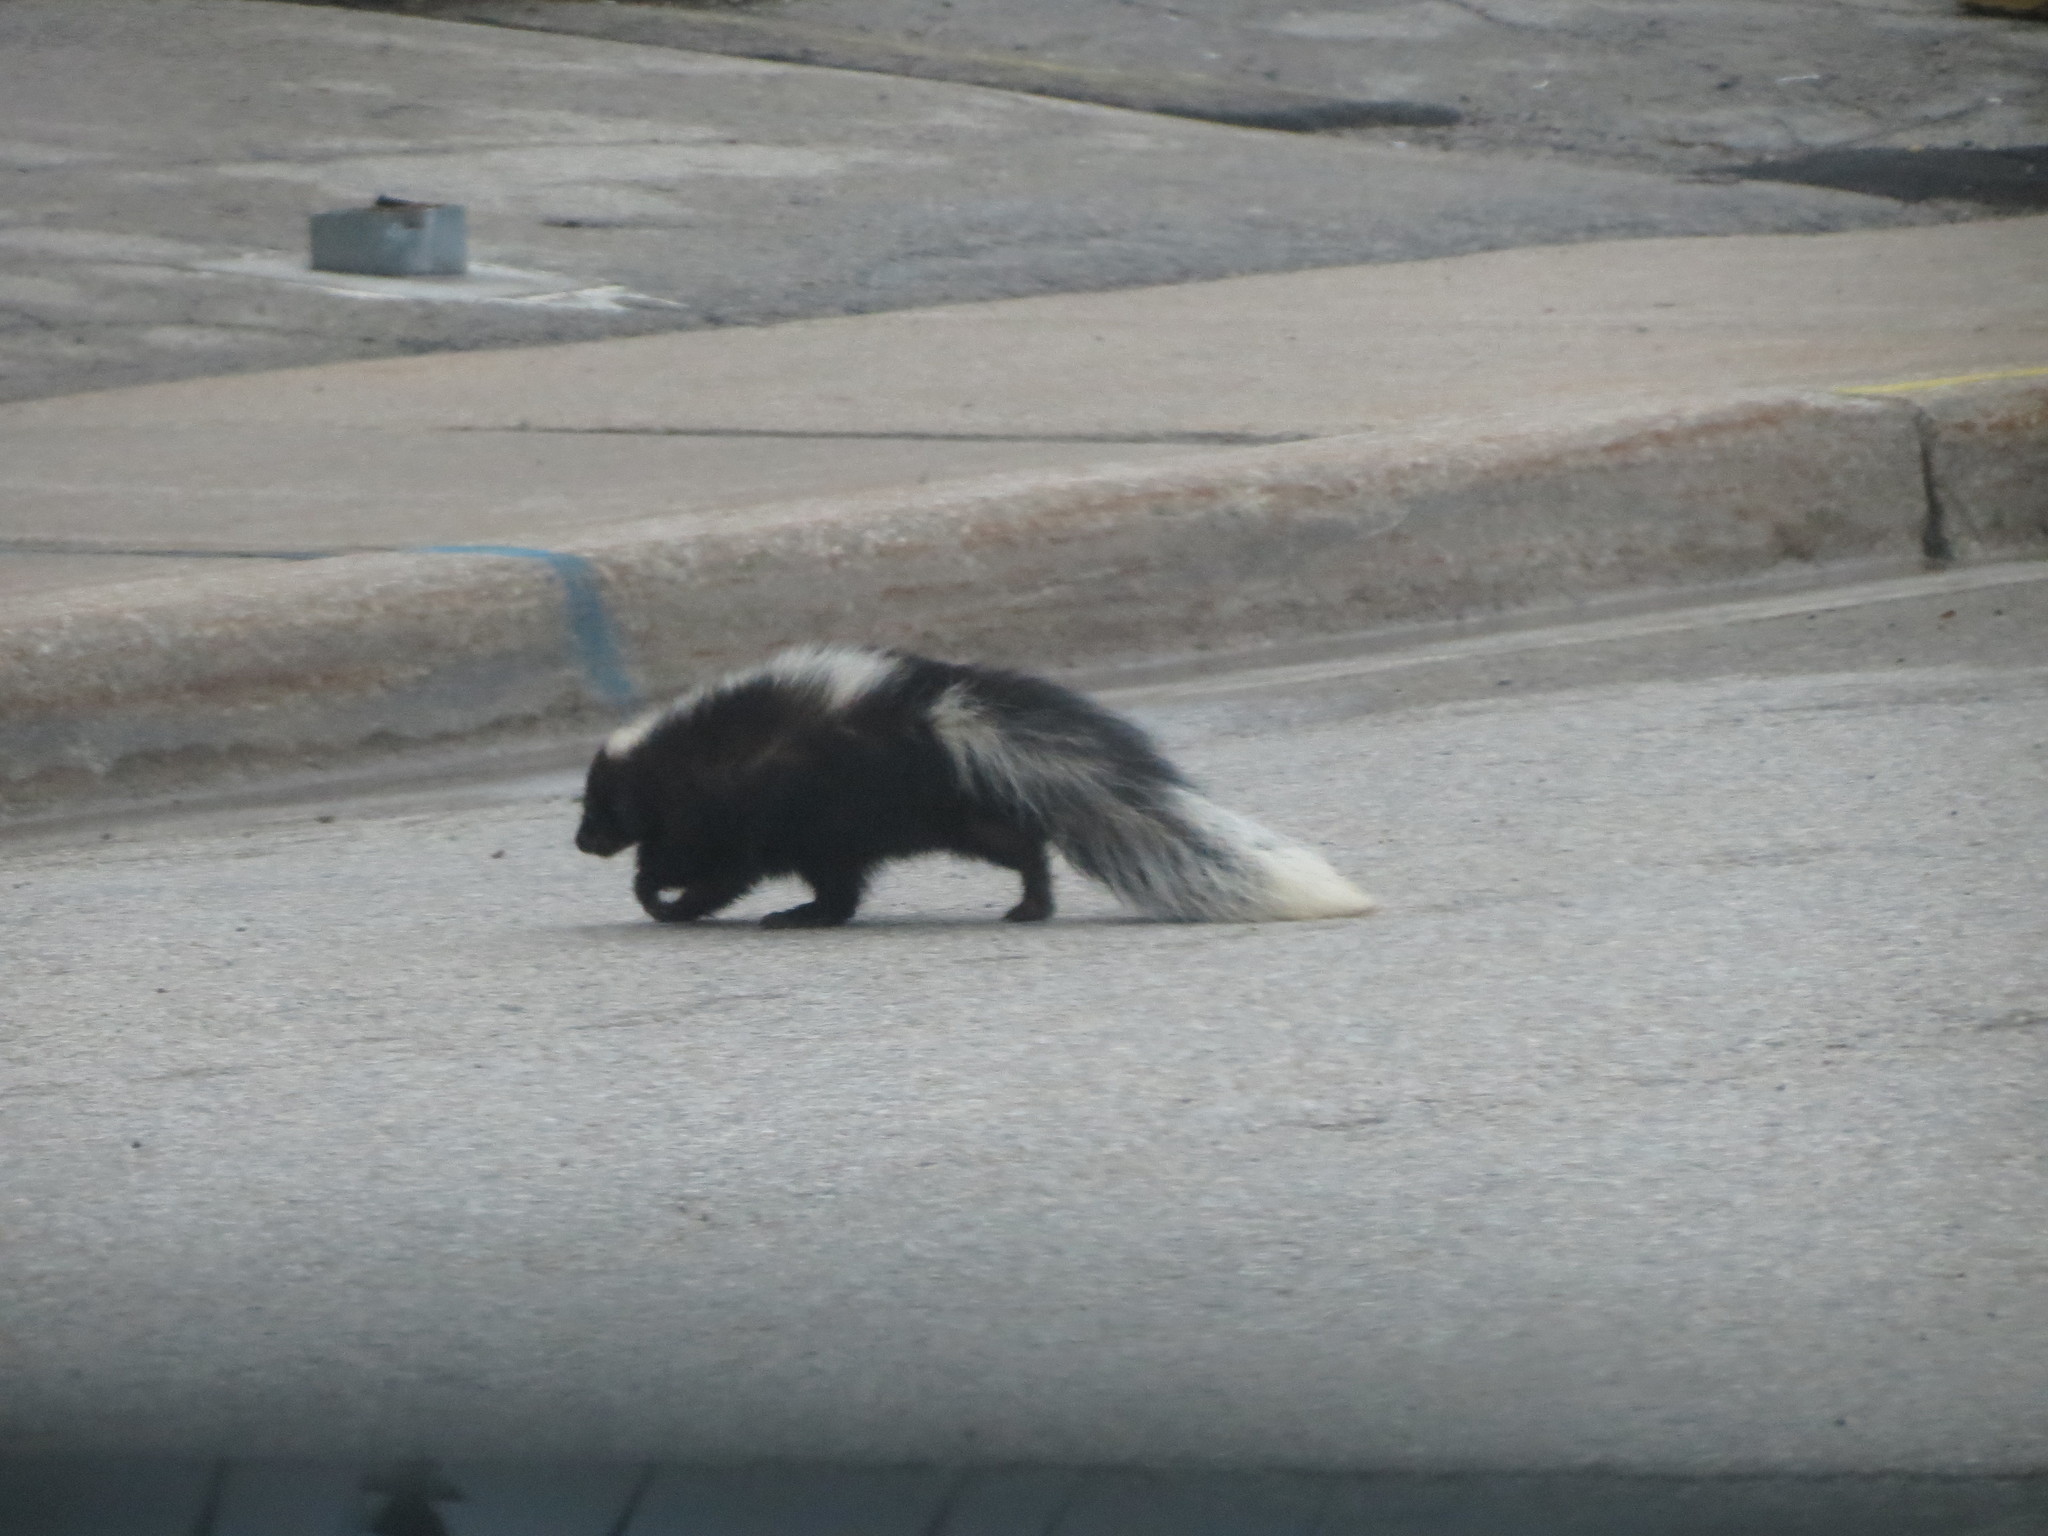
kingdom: Animalia
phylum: Chordata
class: Mammalia
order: Carnivora
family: Mephitidae
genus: Mephitis
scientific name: Mephitis mephitis
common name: Striped skunk
